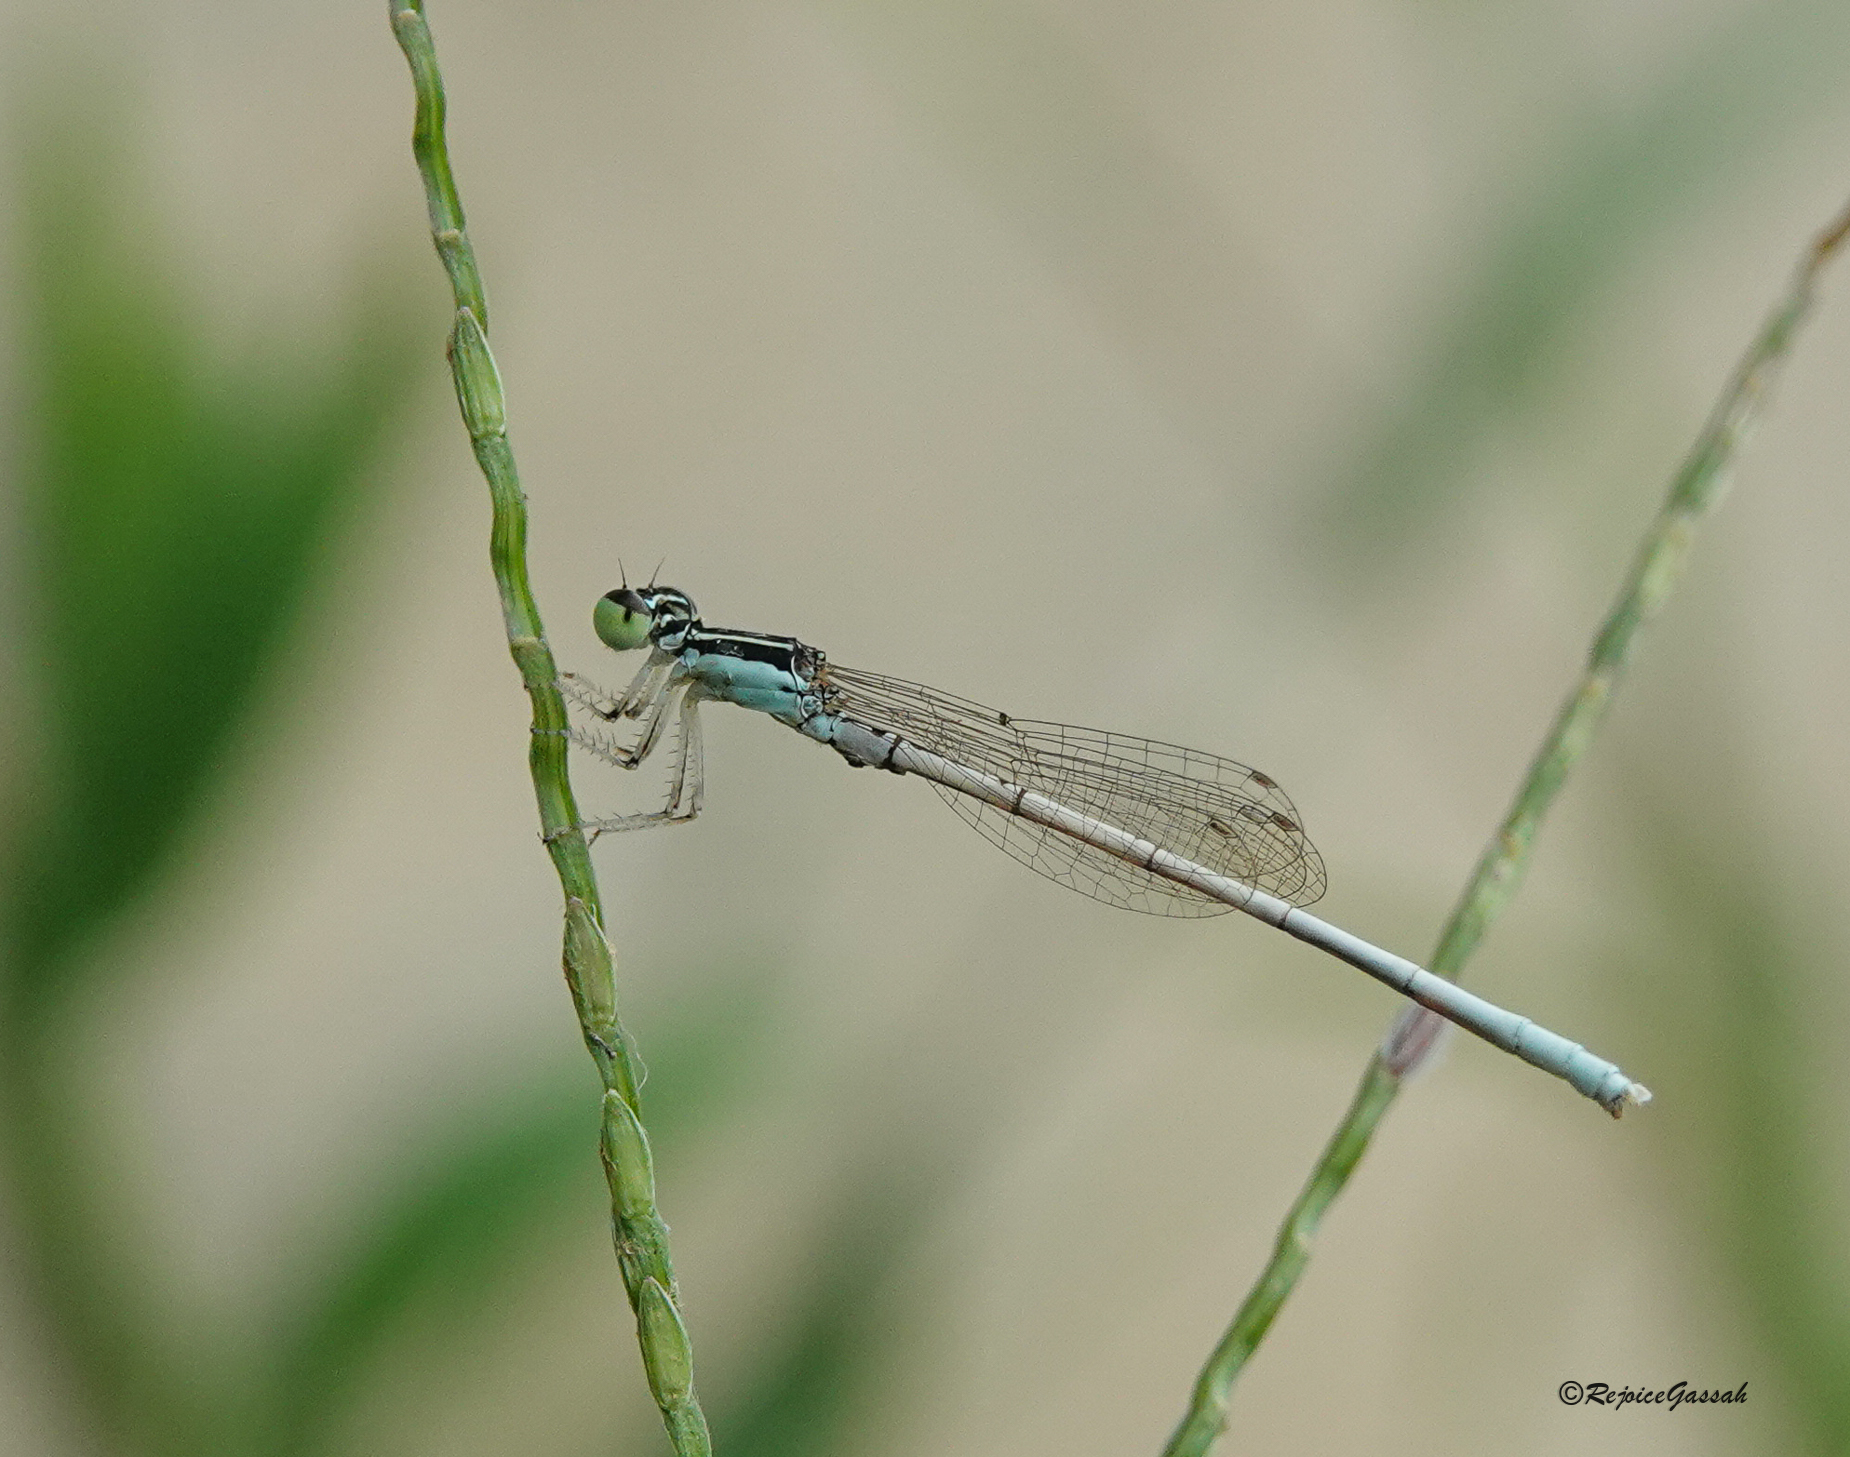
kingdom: Animalia
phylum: Arthropoda
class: Insecta
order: Odonata
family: Coenagrionidae
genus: Agriocnemis
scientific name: Agriocnemis lacteola
